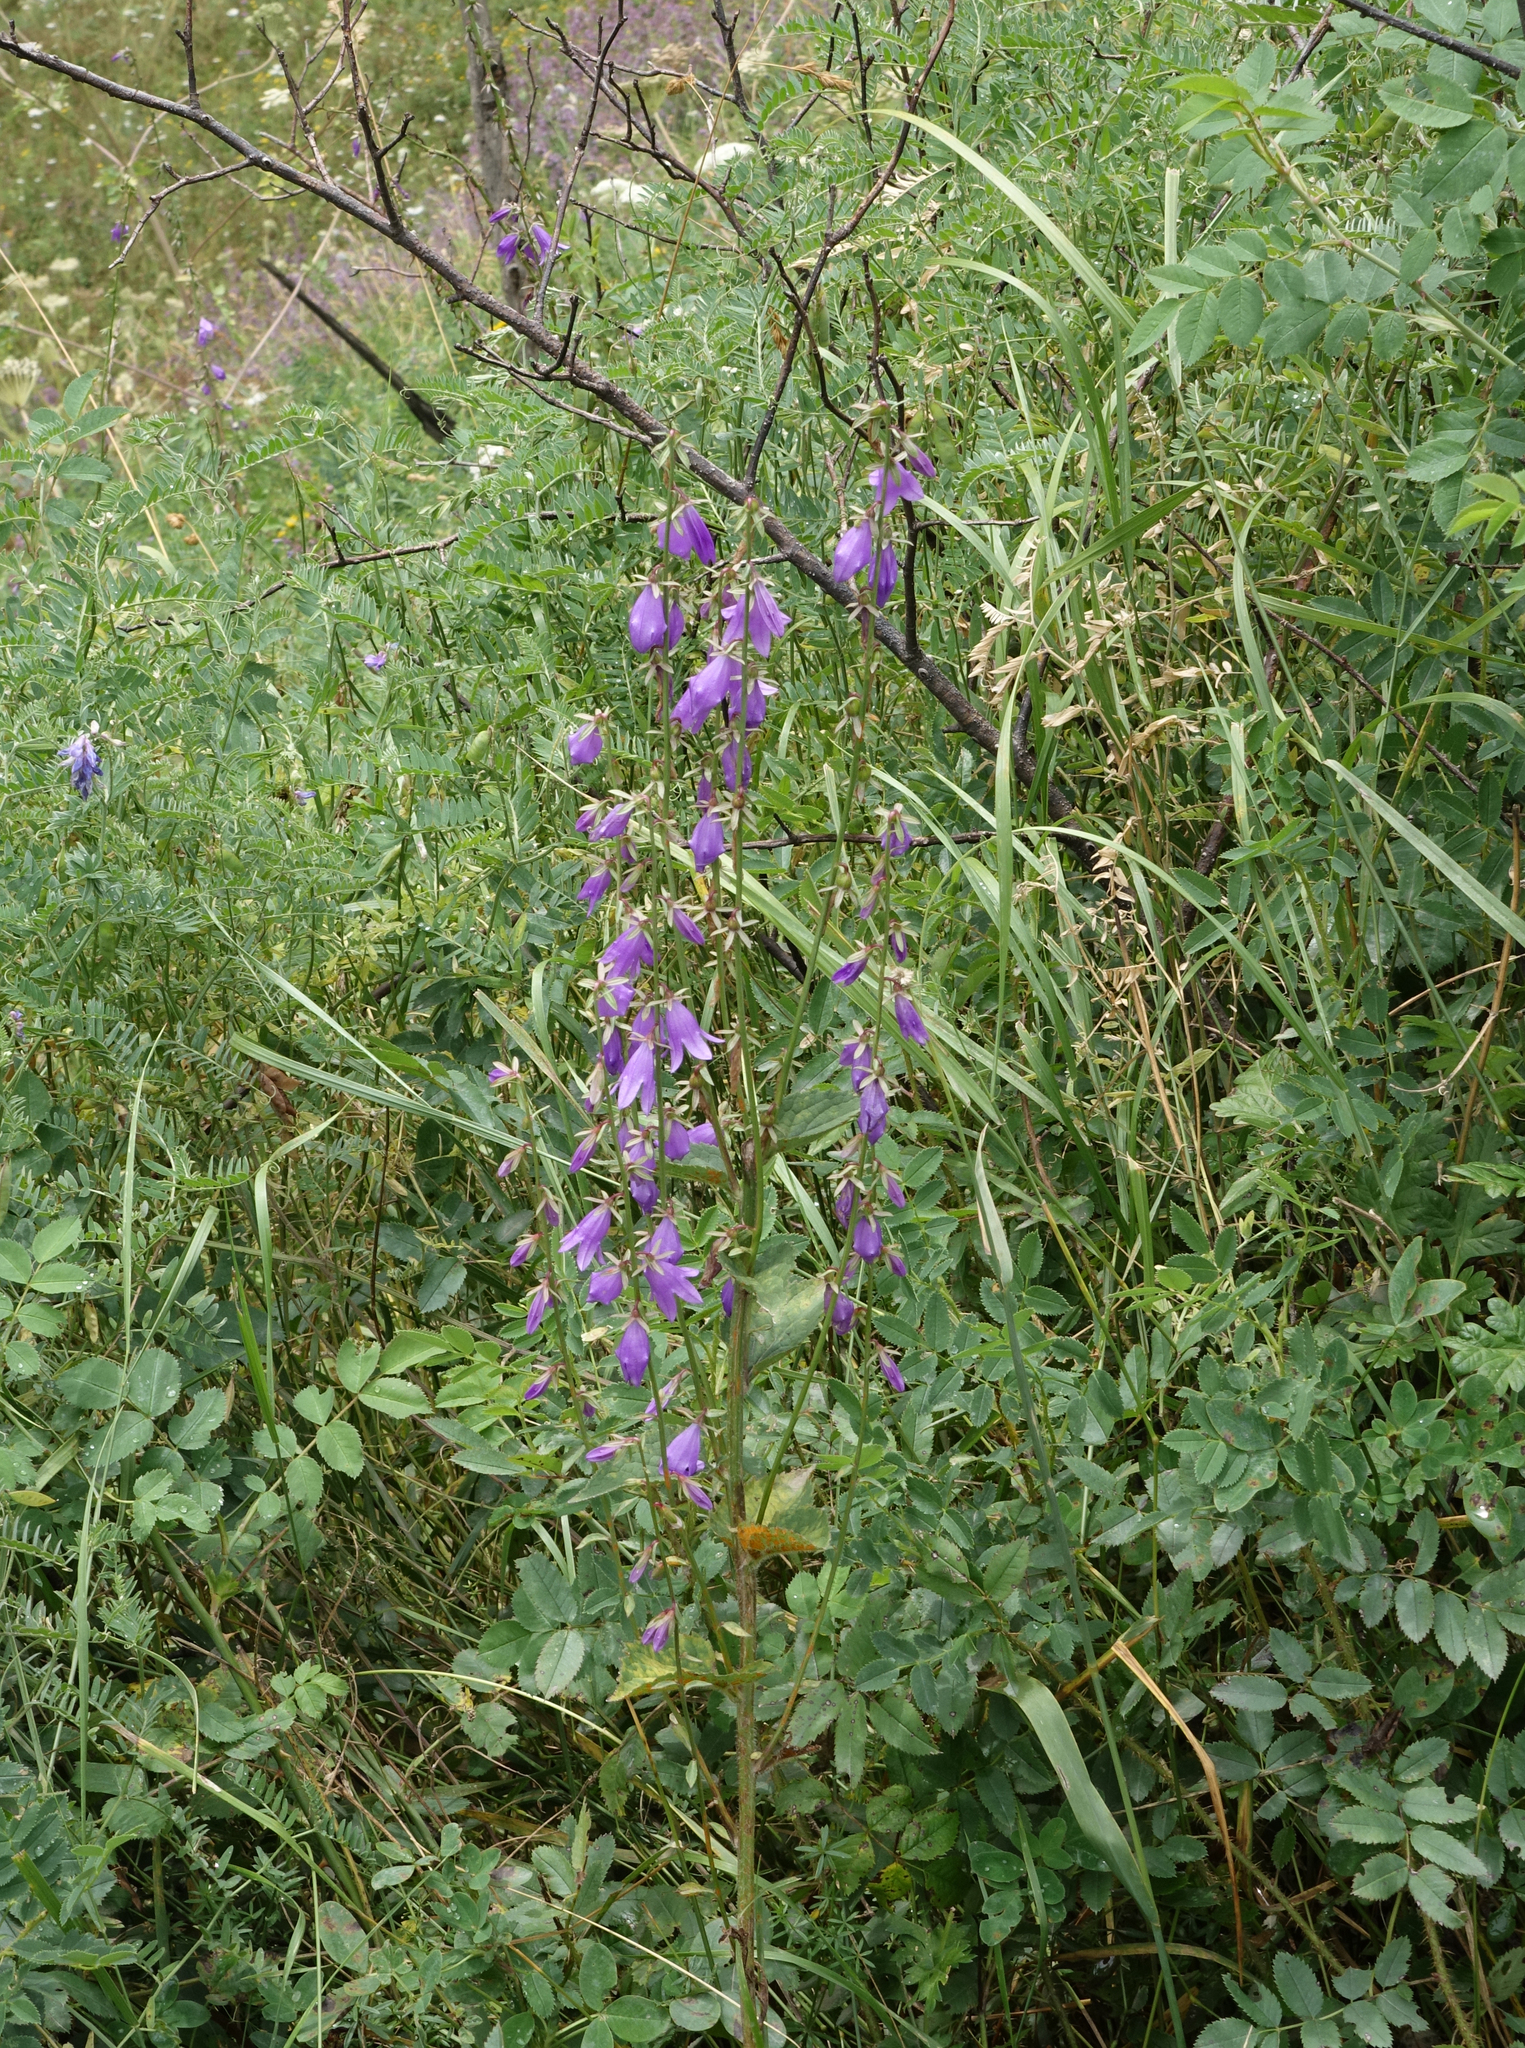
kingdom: Plantae
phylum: Tracheophyta
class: Magnoliopsida
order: Asterales
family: Campanulaceae
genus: Campanula
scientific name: Campanula rapunculoides
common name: Creeping bellflower
